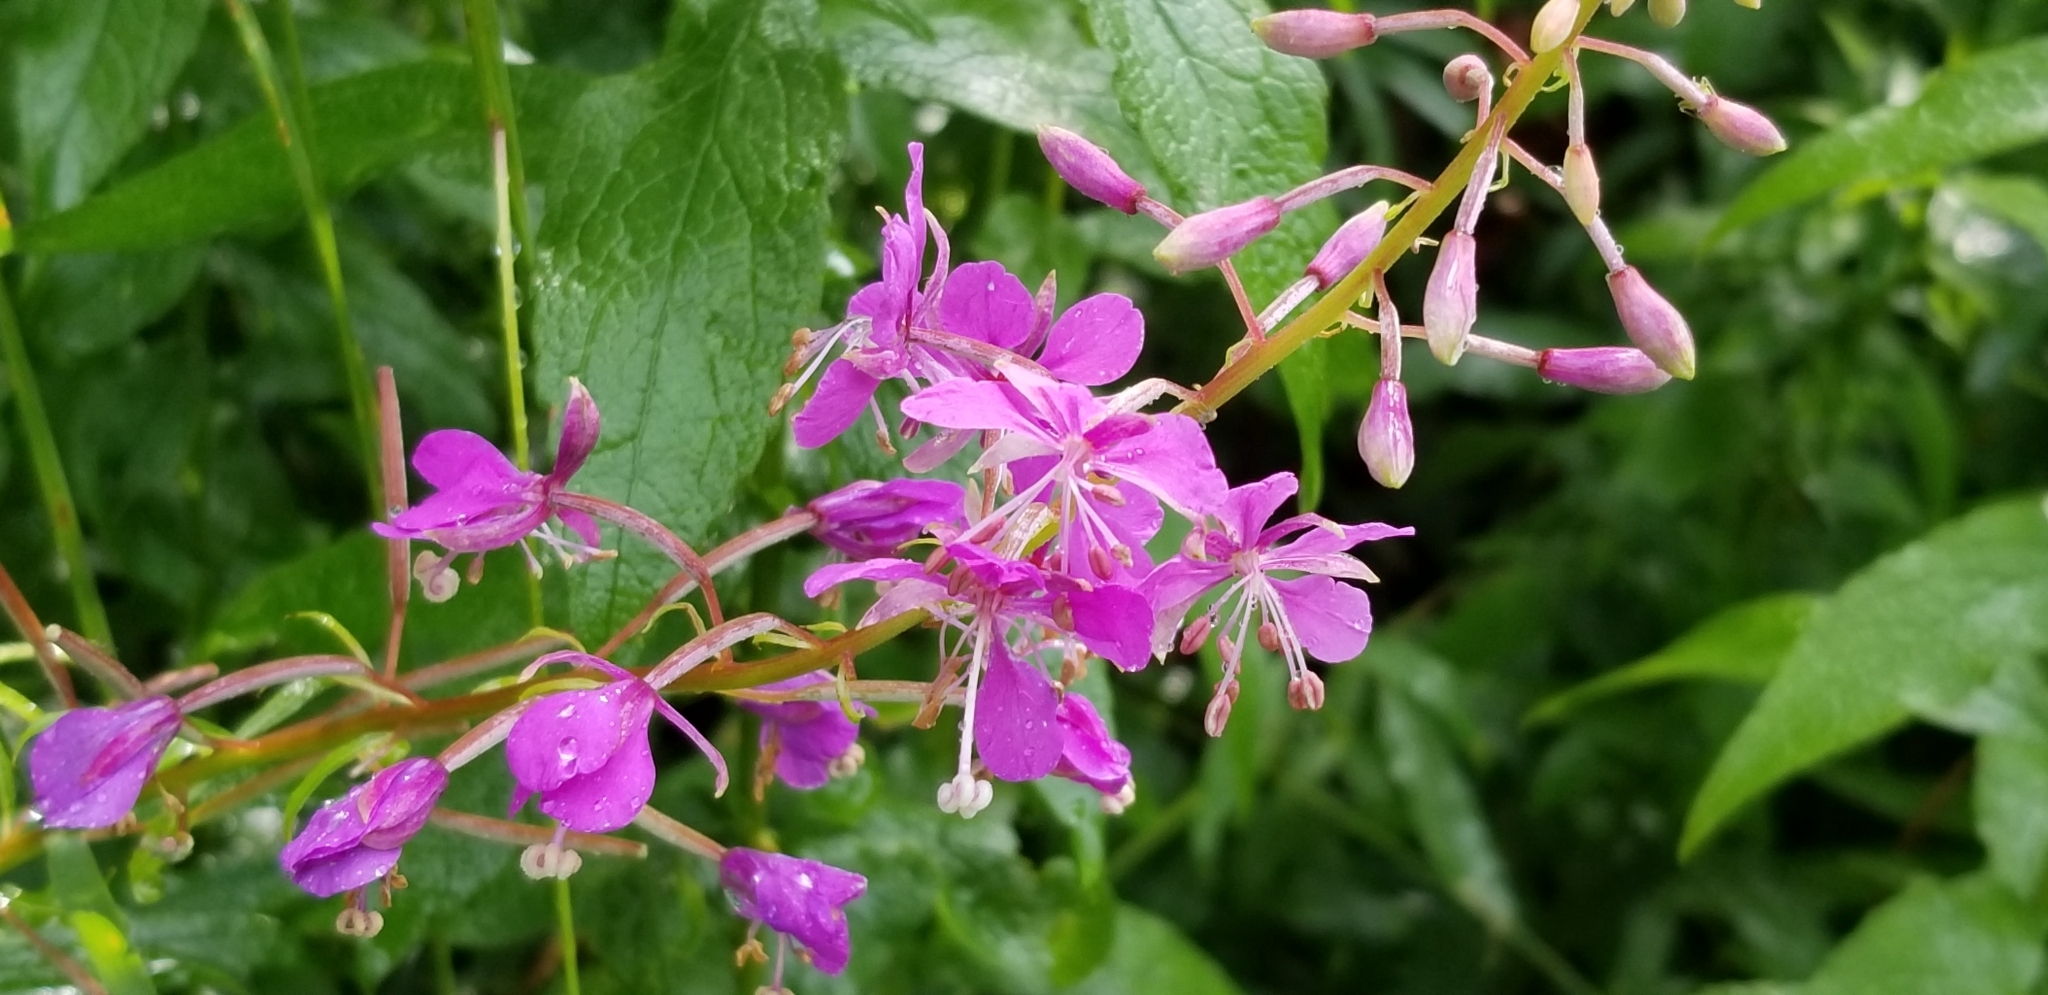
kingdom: Plantae
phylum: Tracheophyta
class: Magnoliopsida
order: Myrtales
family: Onagraceae
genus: Chamaenerion
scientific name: Chamaenerion angustifolium
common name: Fireweed
